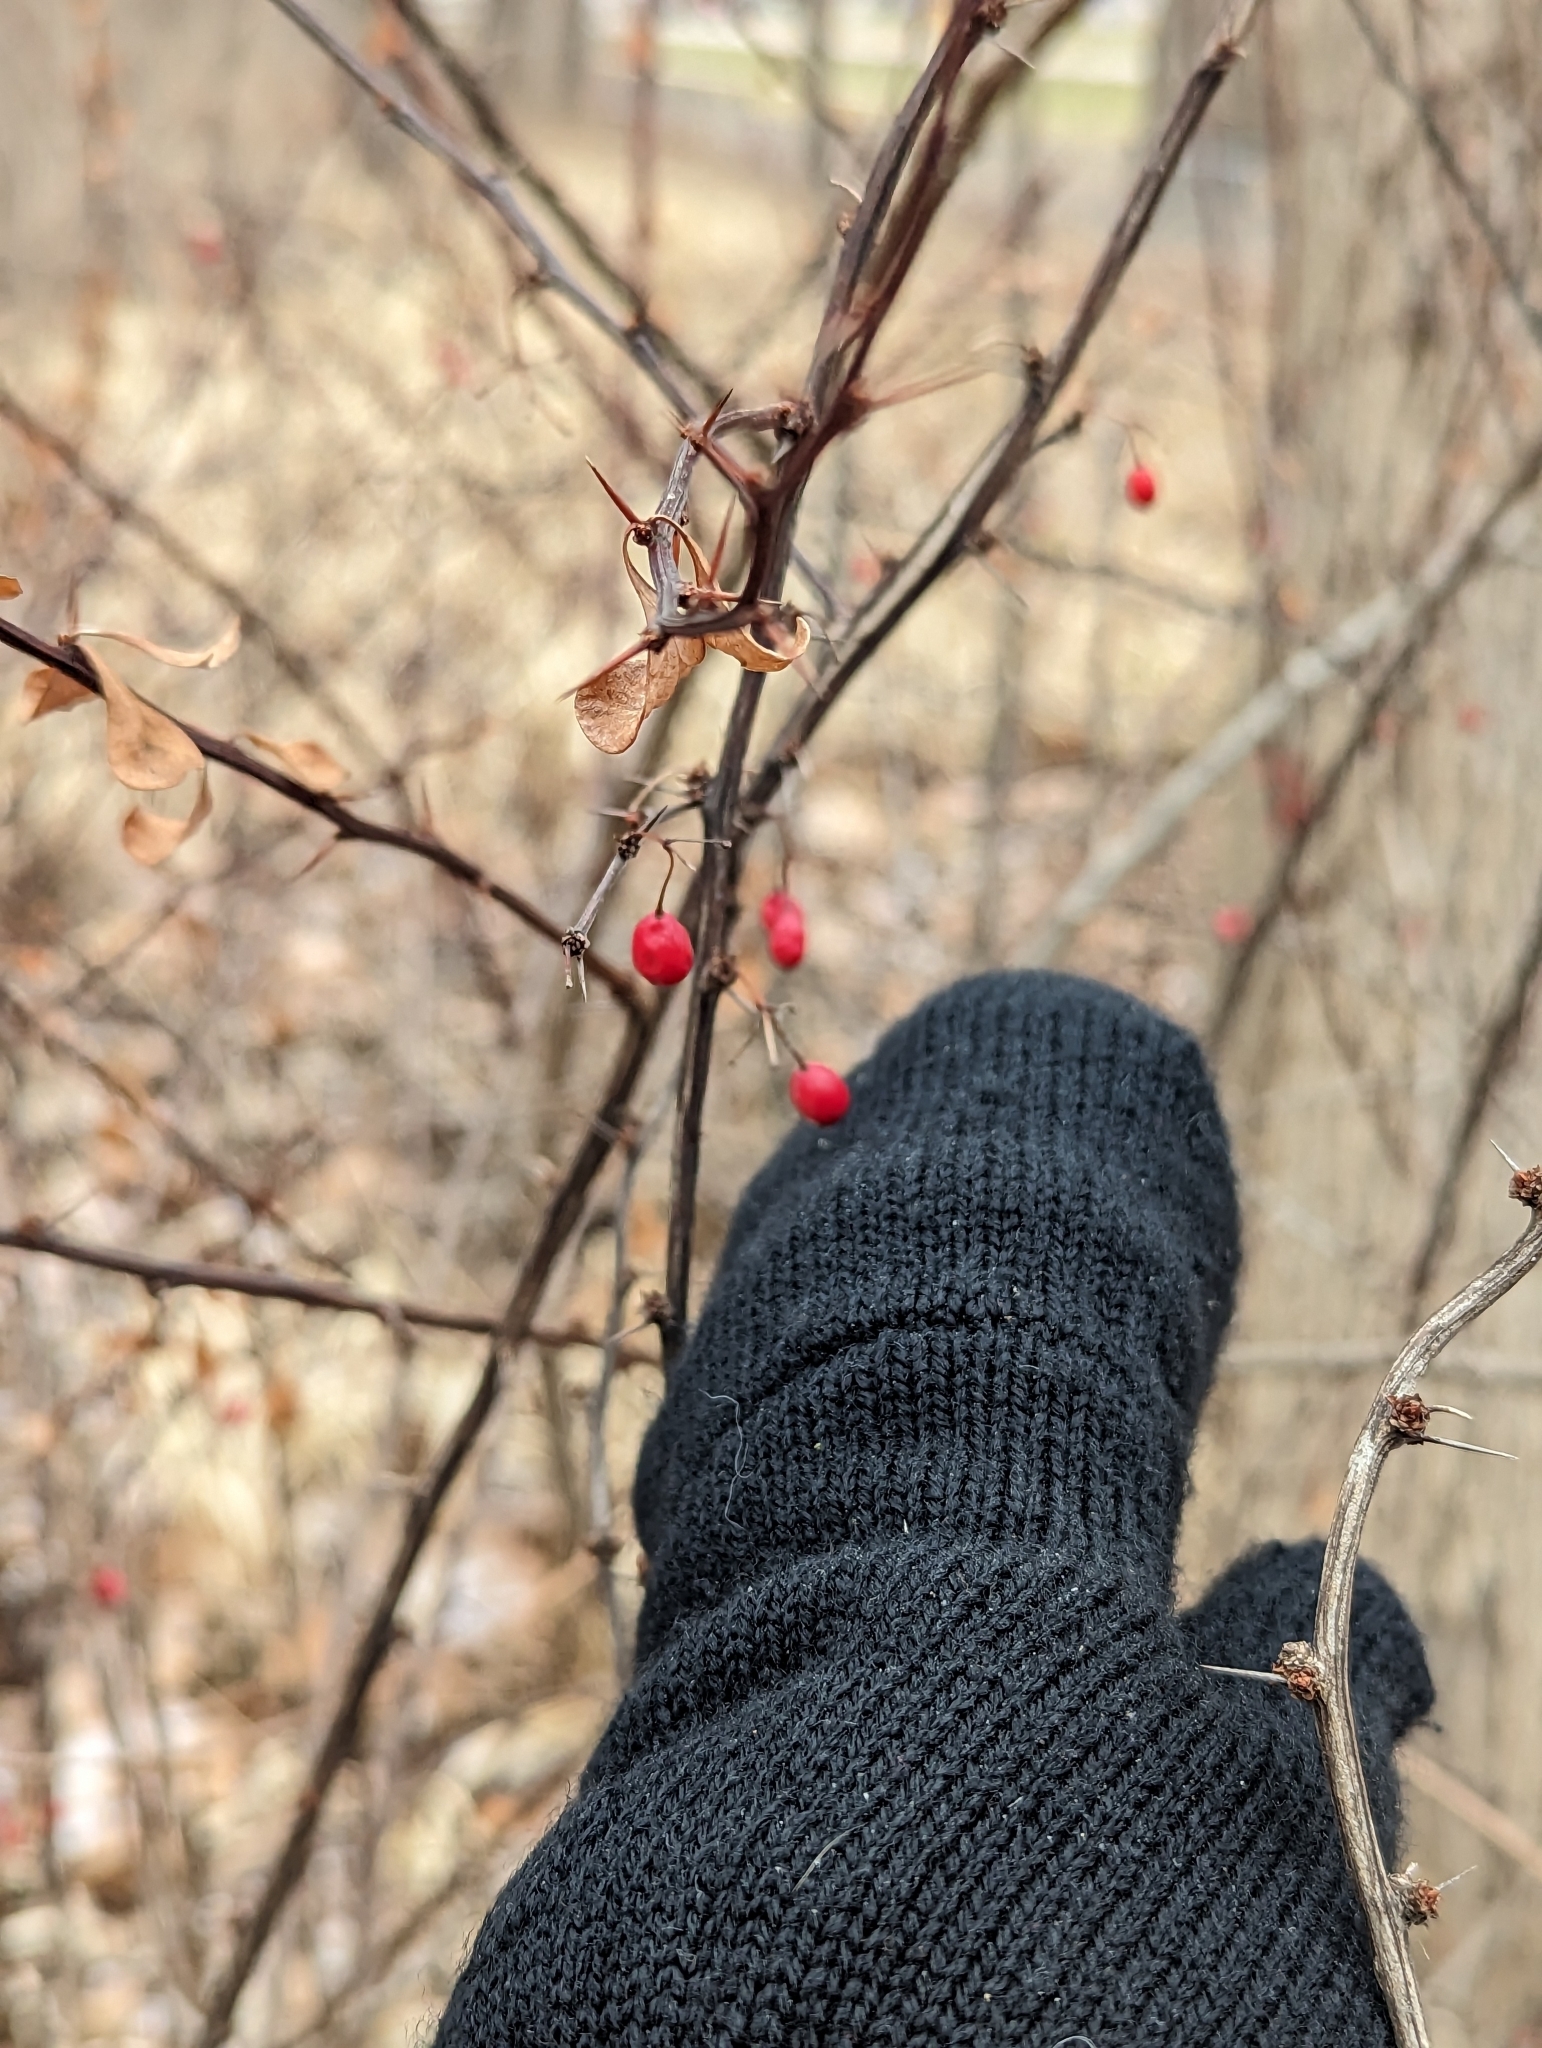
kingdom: Plantae
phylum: Tracheophyta
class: Magnoliopsida
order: Ranunculales
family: Berberidaceae
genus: Berberis
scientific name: Berberis thunbergii
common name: Japanese barberry
